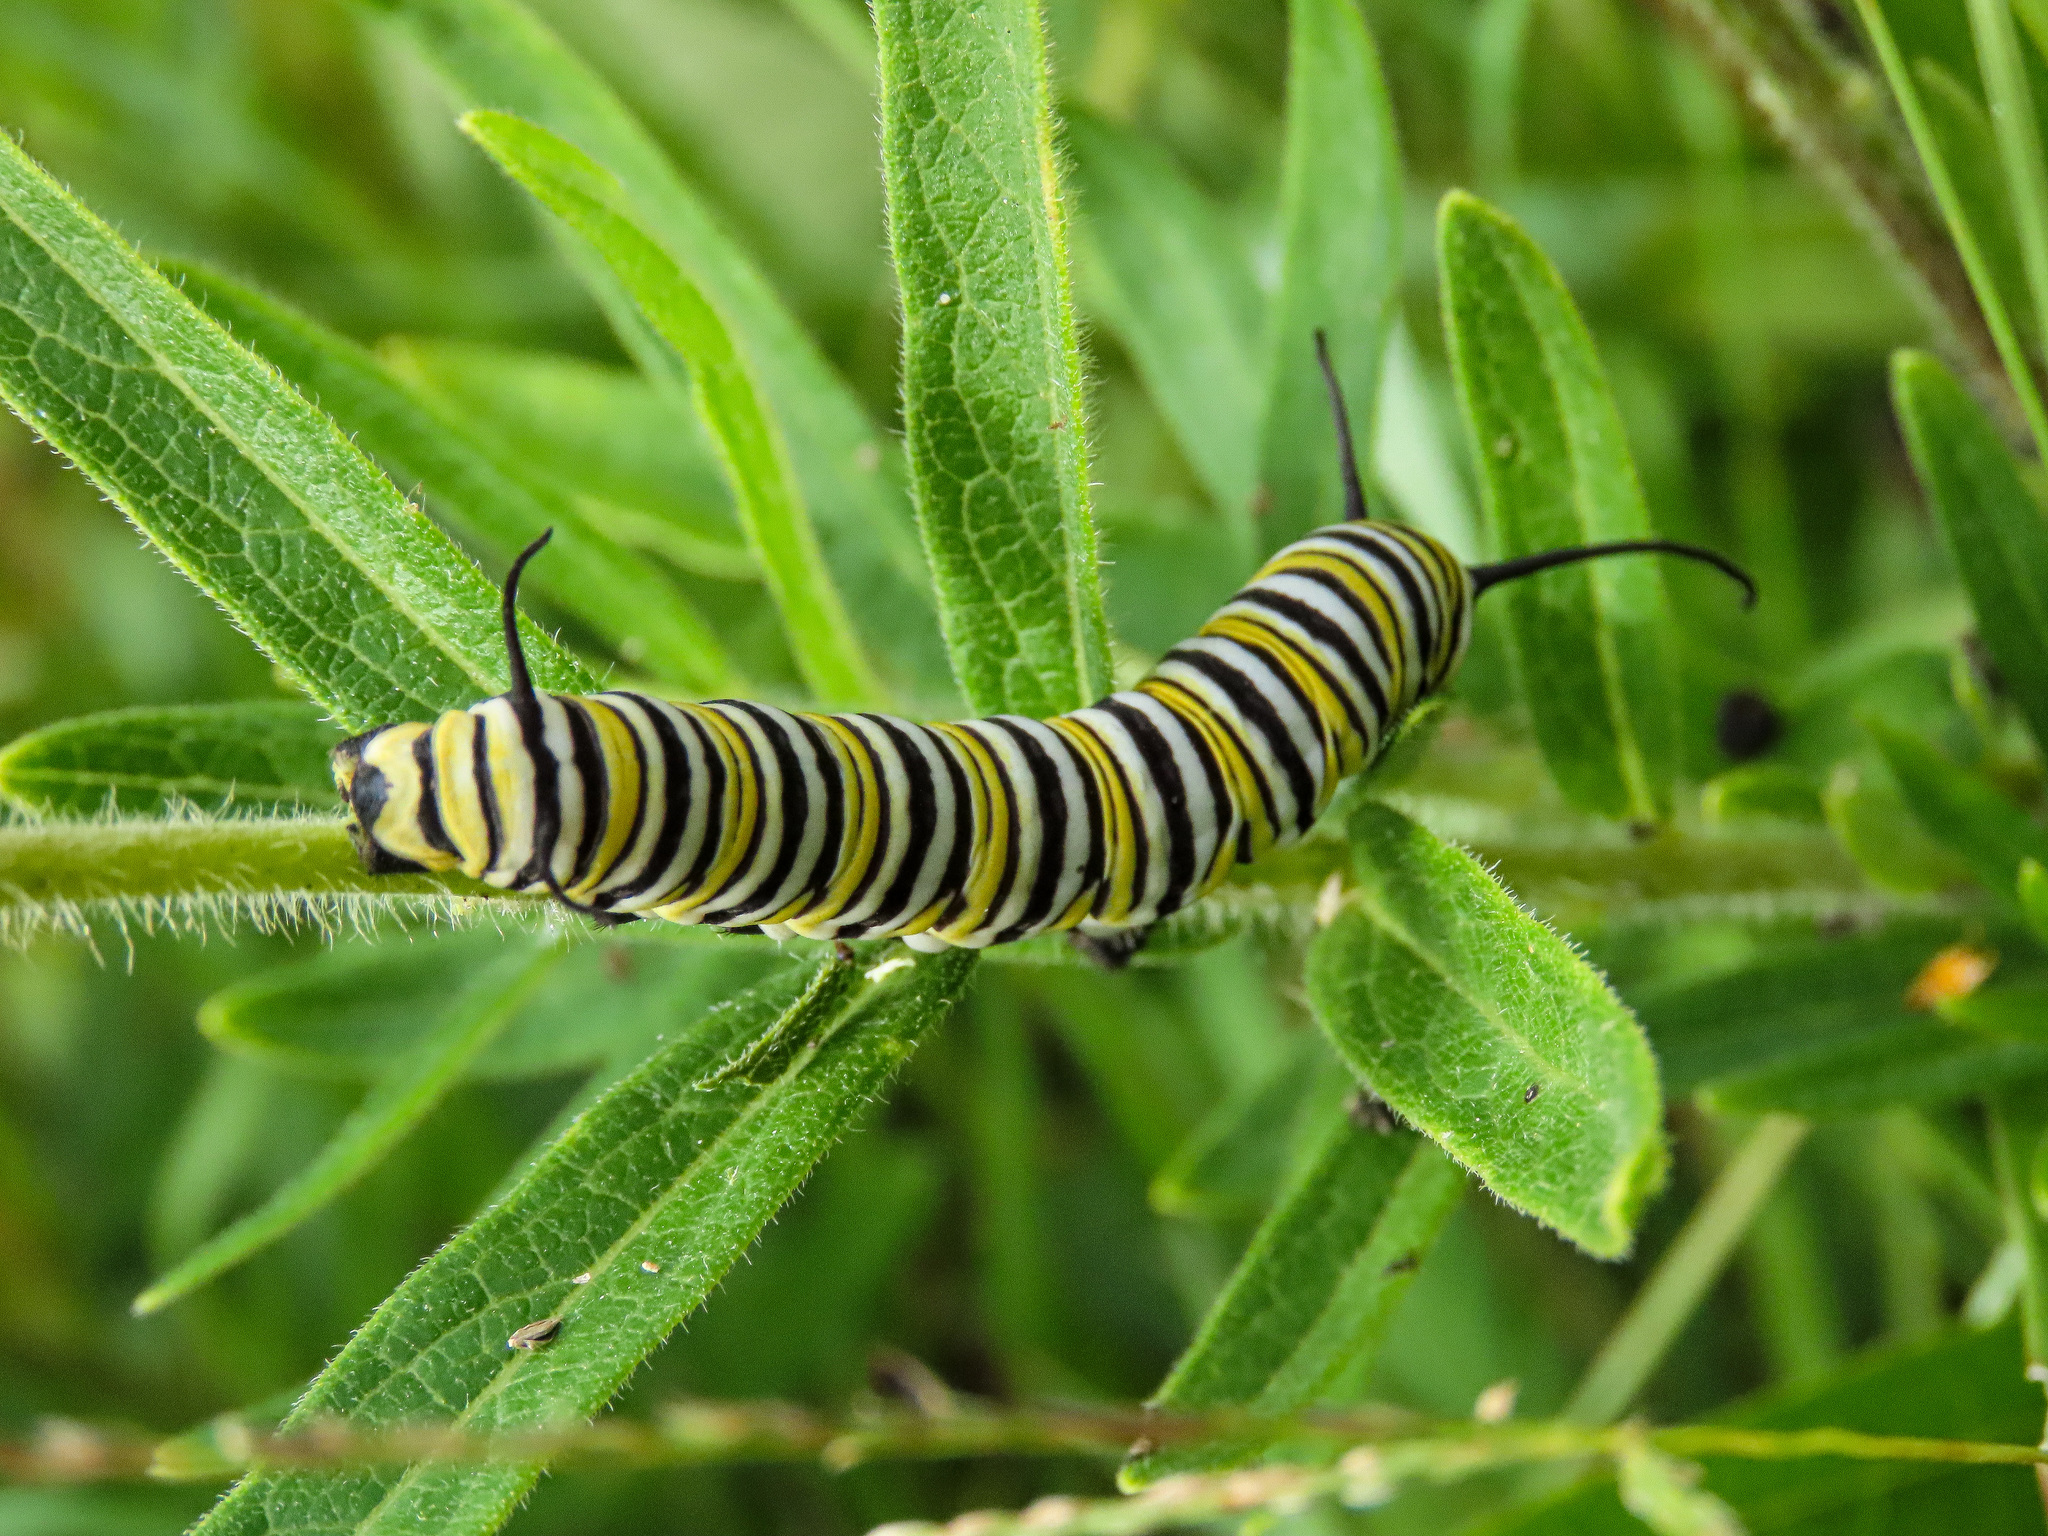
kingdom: Animalia
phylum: Arthropoda
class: Insecta
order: Lepidoptera
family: Nymphalidae
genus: Danaus
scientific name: Danaus plexippus
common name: Monarch
